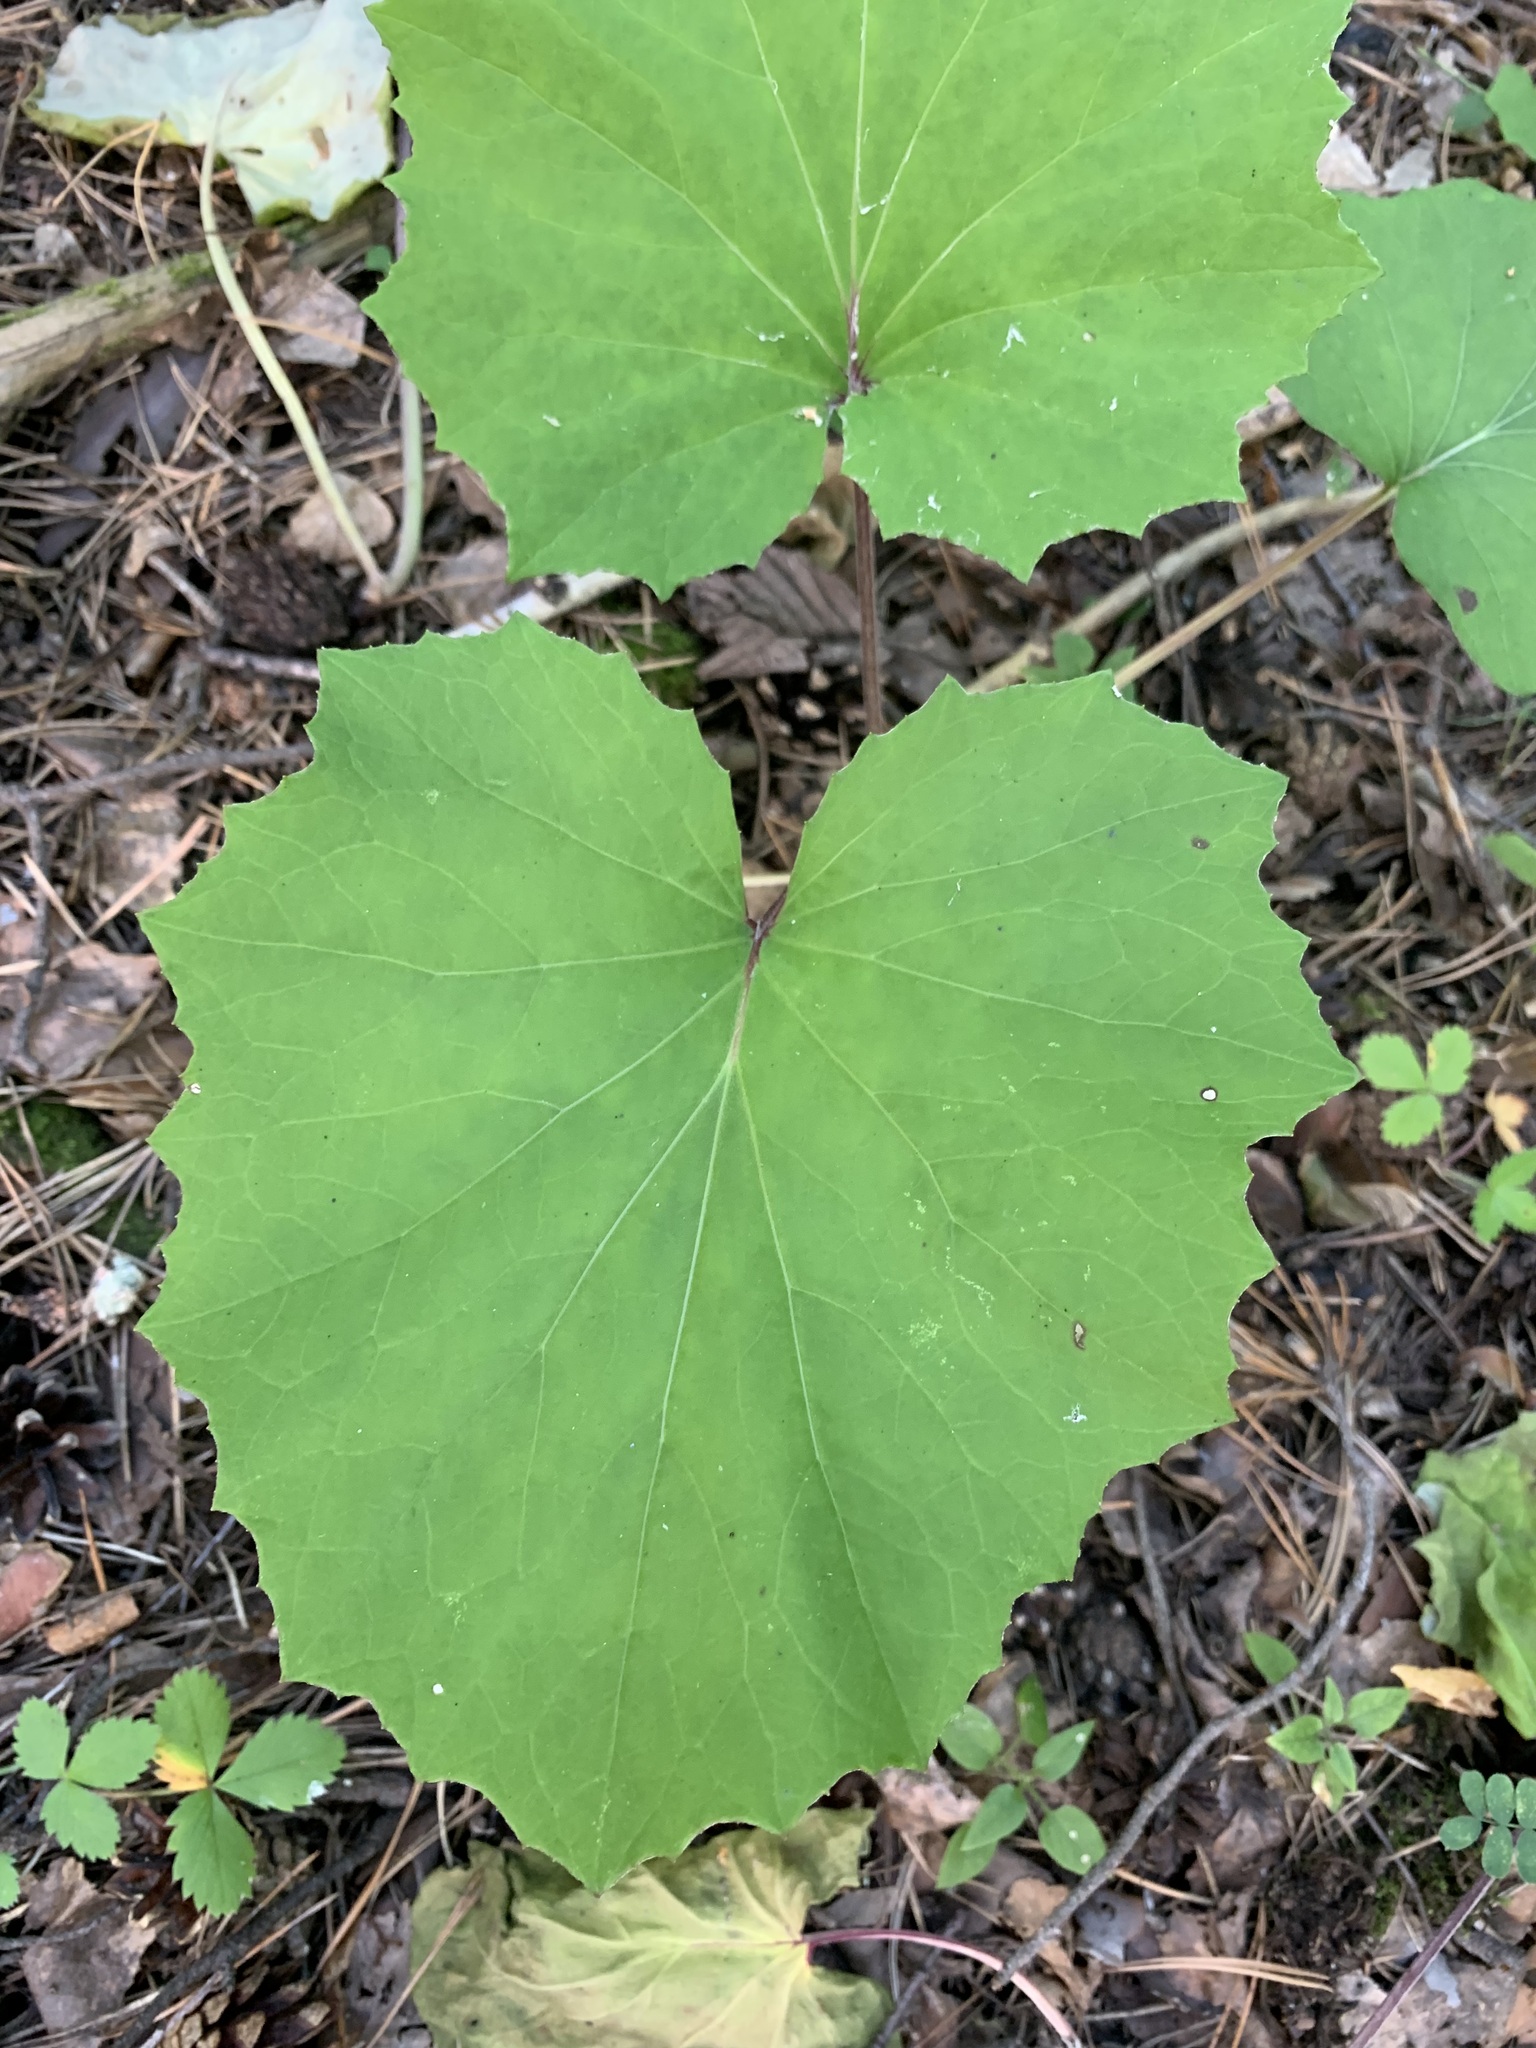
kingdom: Plantae
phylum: Tracheophyta
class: Magnoliopsida
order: Asterales
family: Asteraceae
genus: Tussilago
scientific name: Tussilago farfara
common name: Coltsfoot
